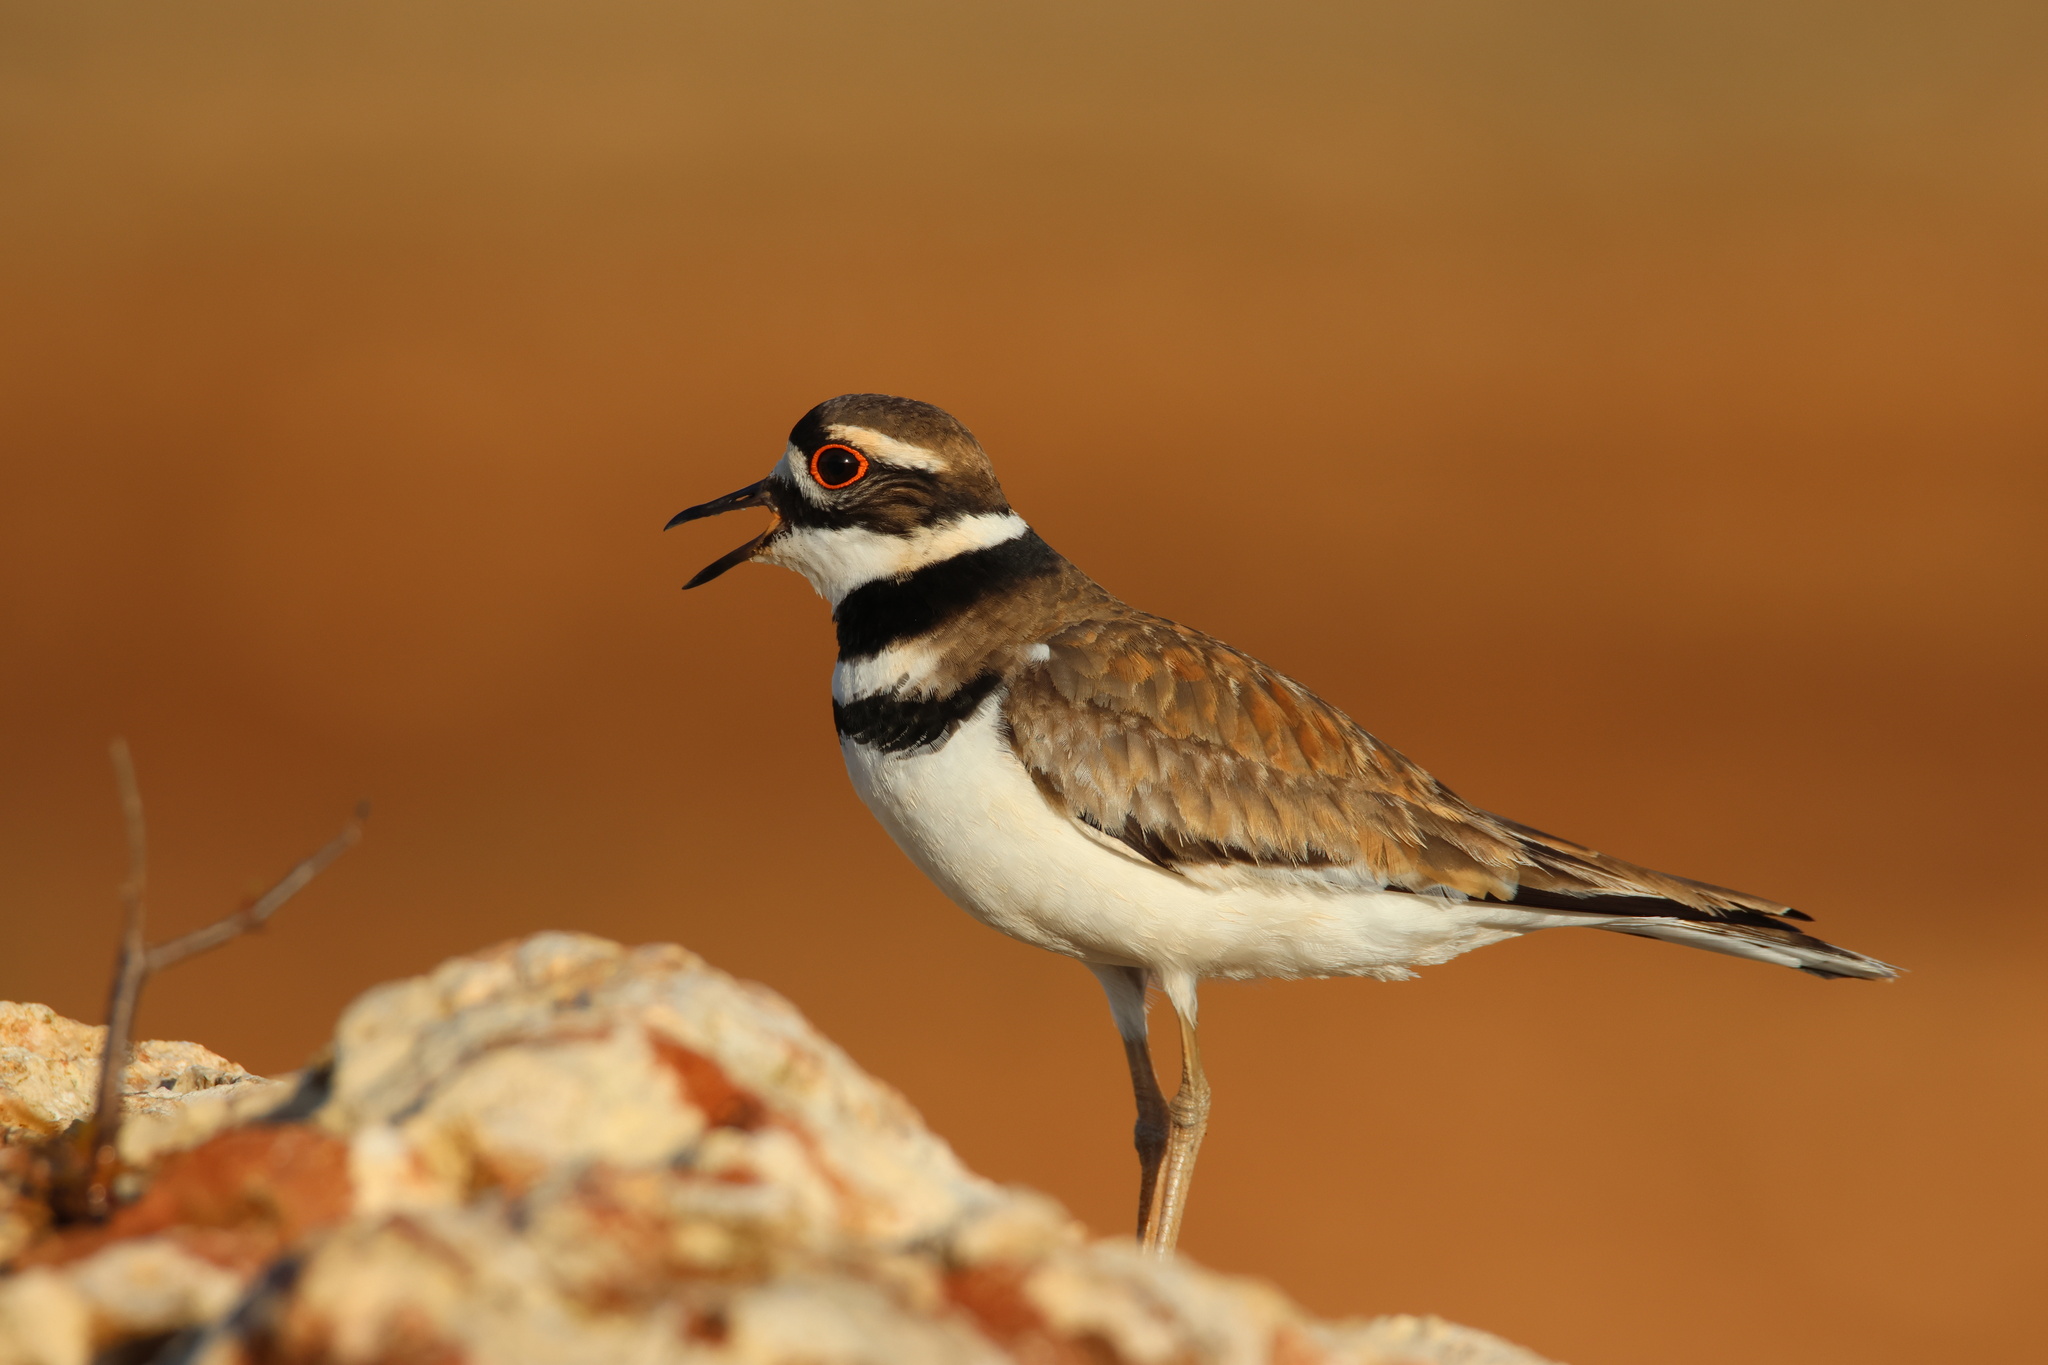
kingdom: Animalia
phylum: Chordata
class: Aves
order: Charadriiformes
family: Charadriidae
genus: Charadrius
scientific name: Charadrius vociferus
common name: Killdeer
